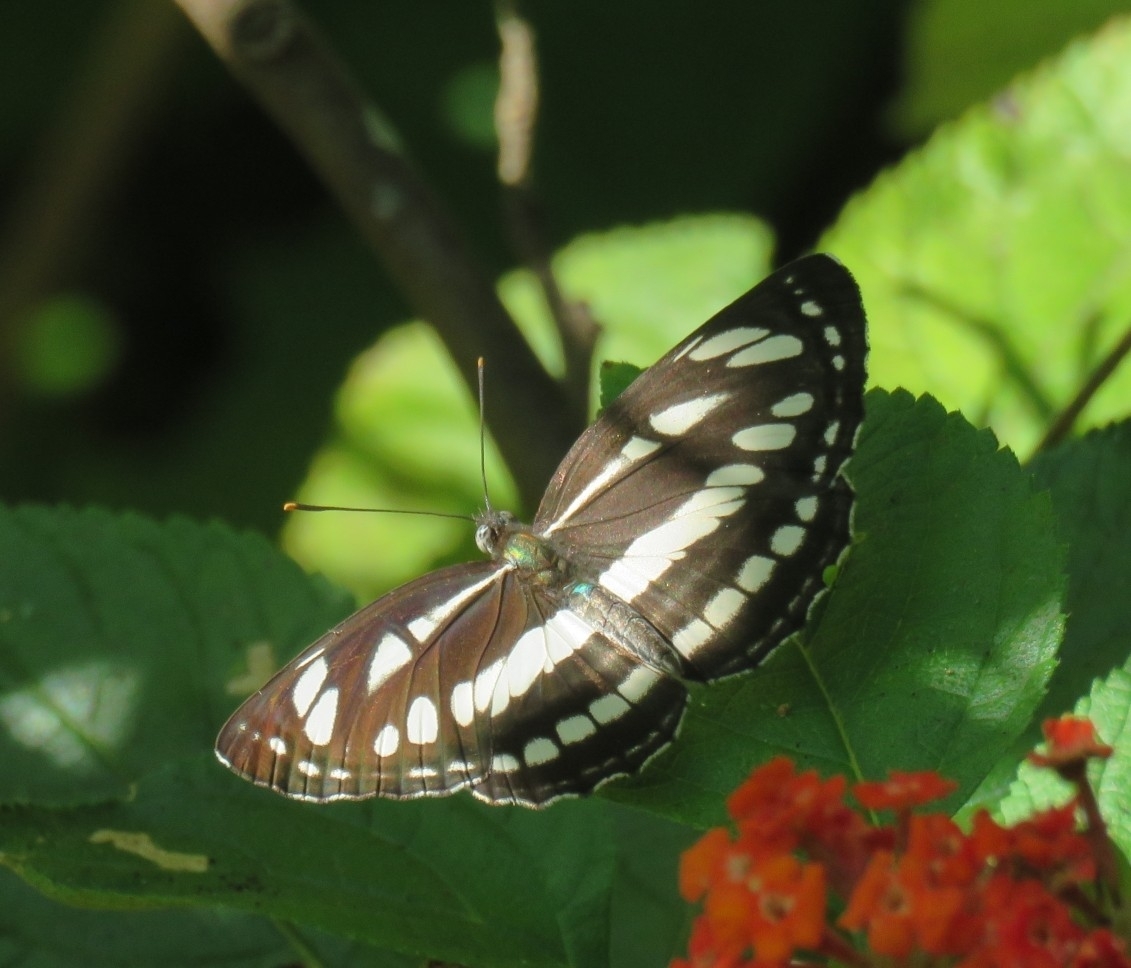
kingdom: Animalia
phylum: Arthropoda
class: Insecta
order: Lepidoptera
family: Nymphalidae
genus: Neptis
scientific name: Neptis hylas
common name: Common sailer
